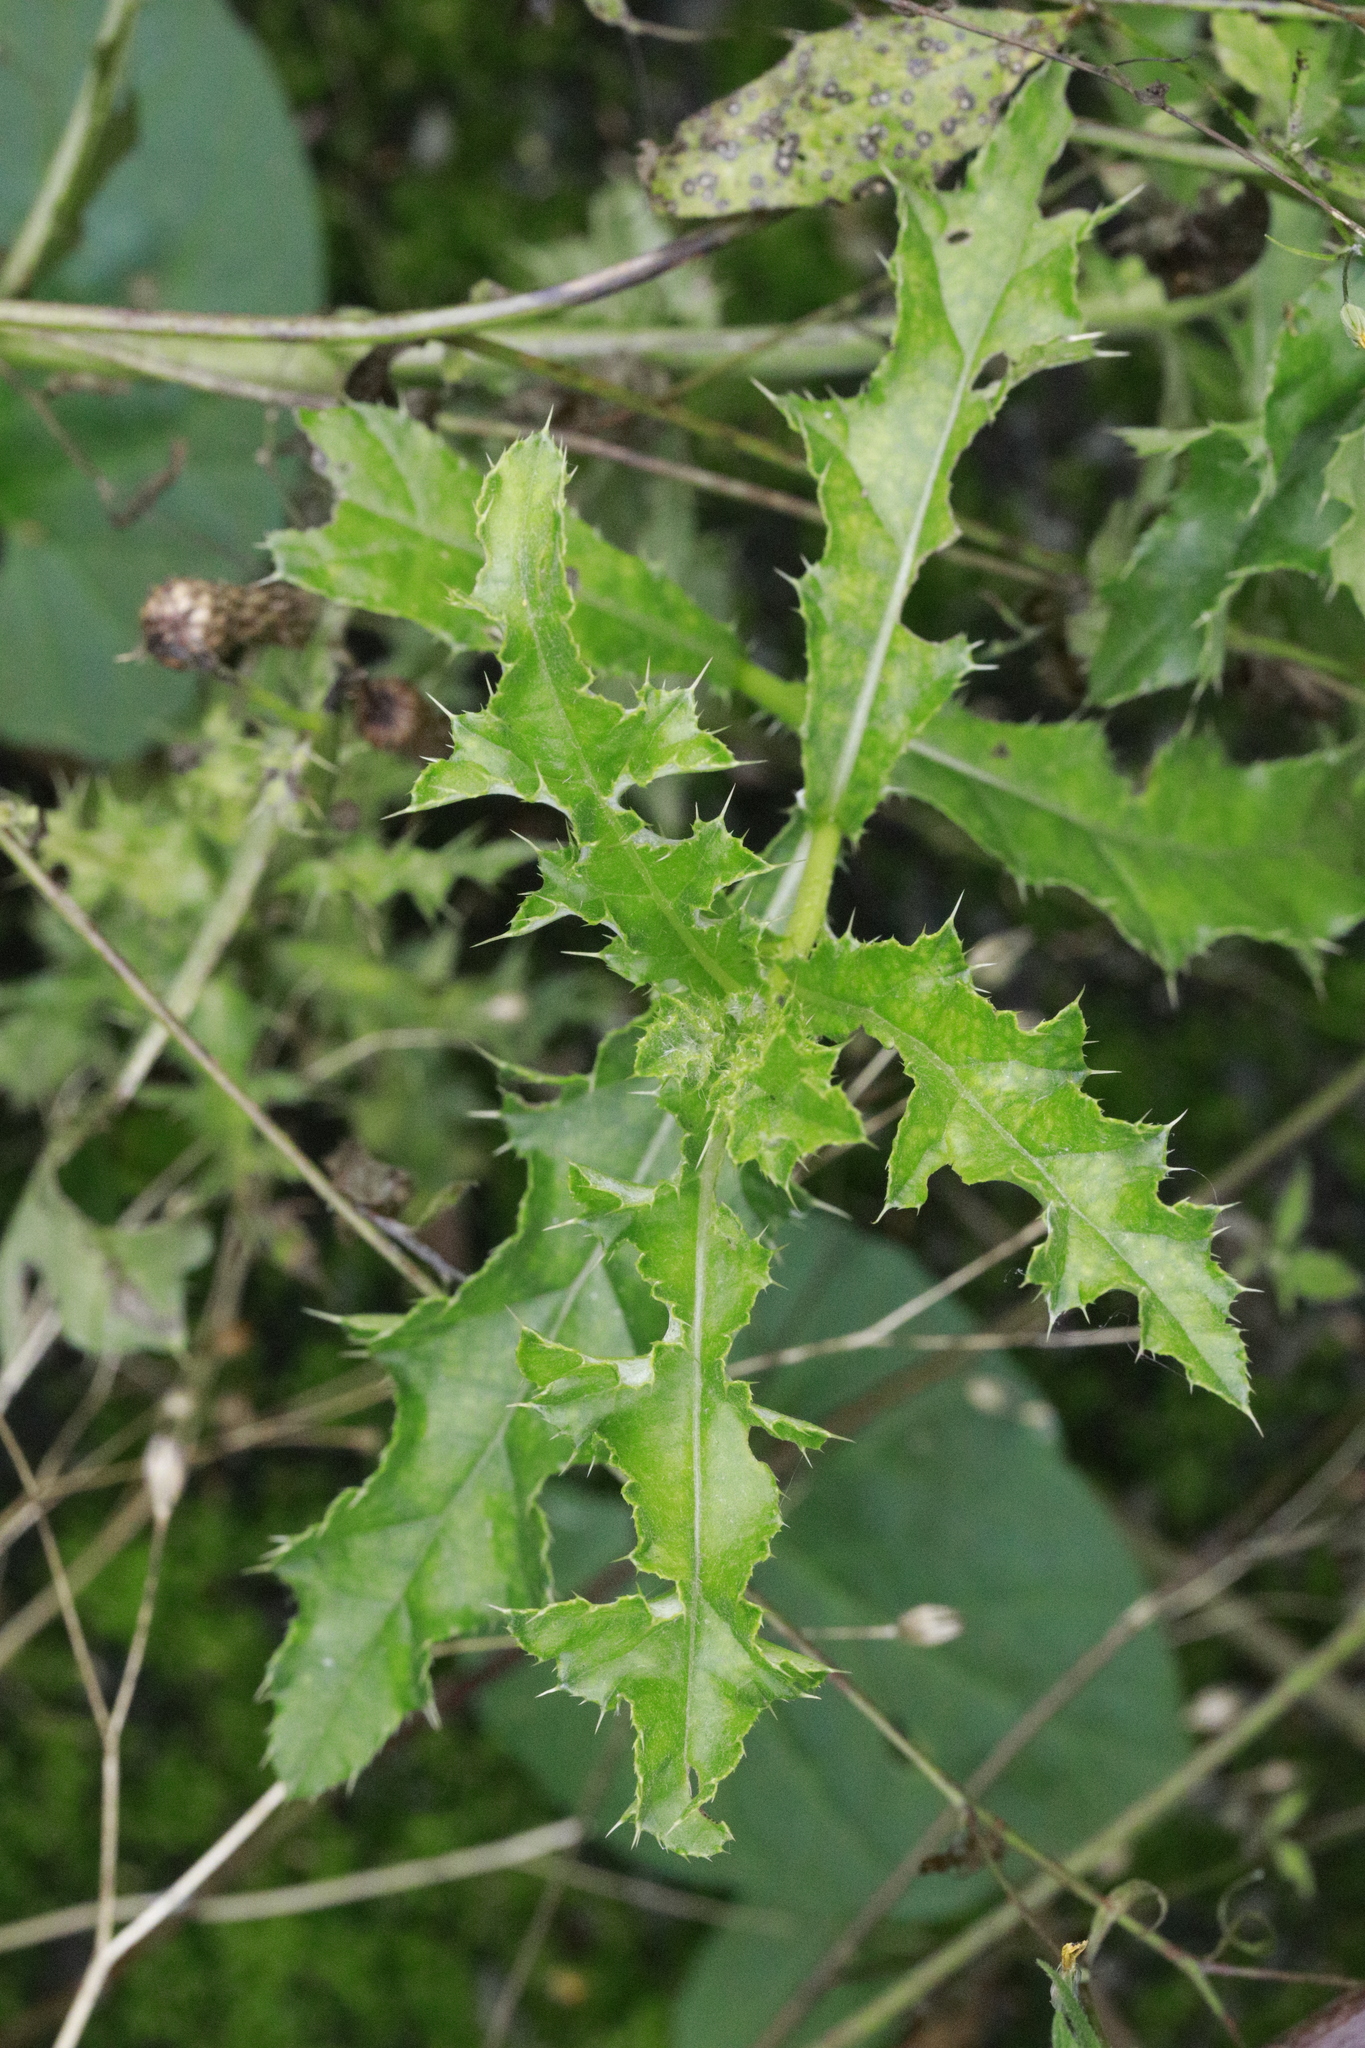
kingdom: Plantae
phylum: Tracheophyta
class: Magnoliopsida
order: Asterales
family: Asteraceae
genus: Cirsium
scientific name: Cirsium arvense
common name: Creeping thistle
